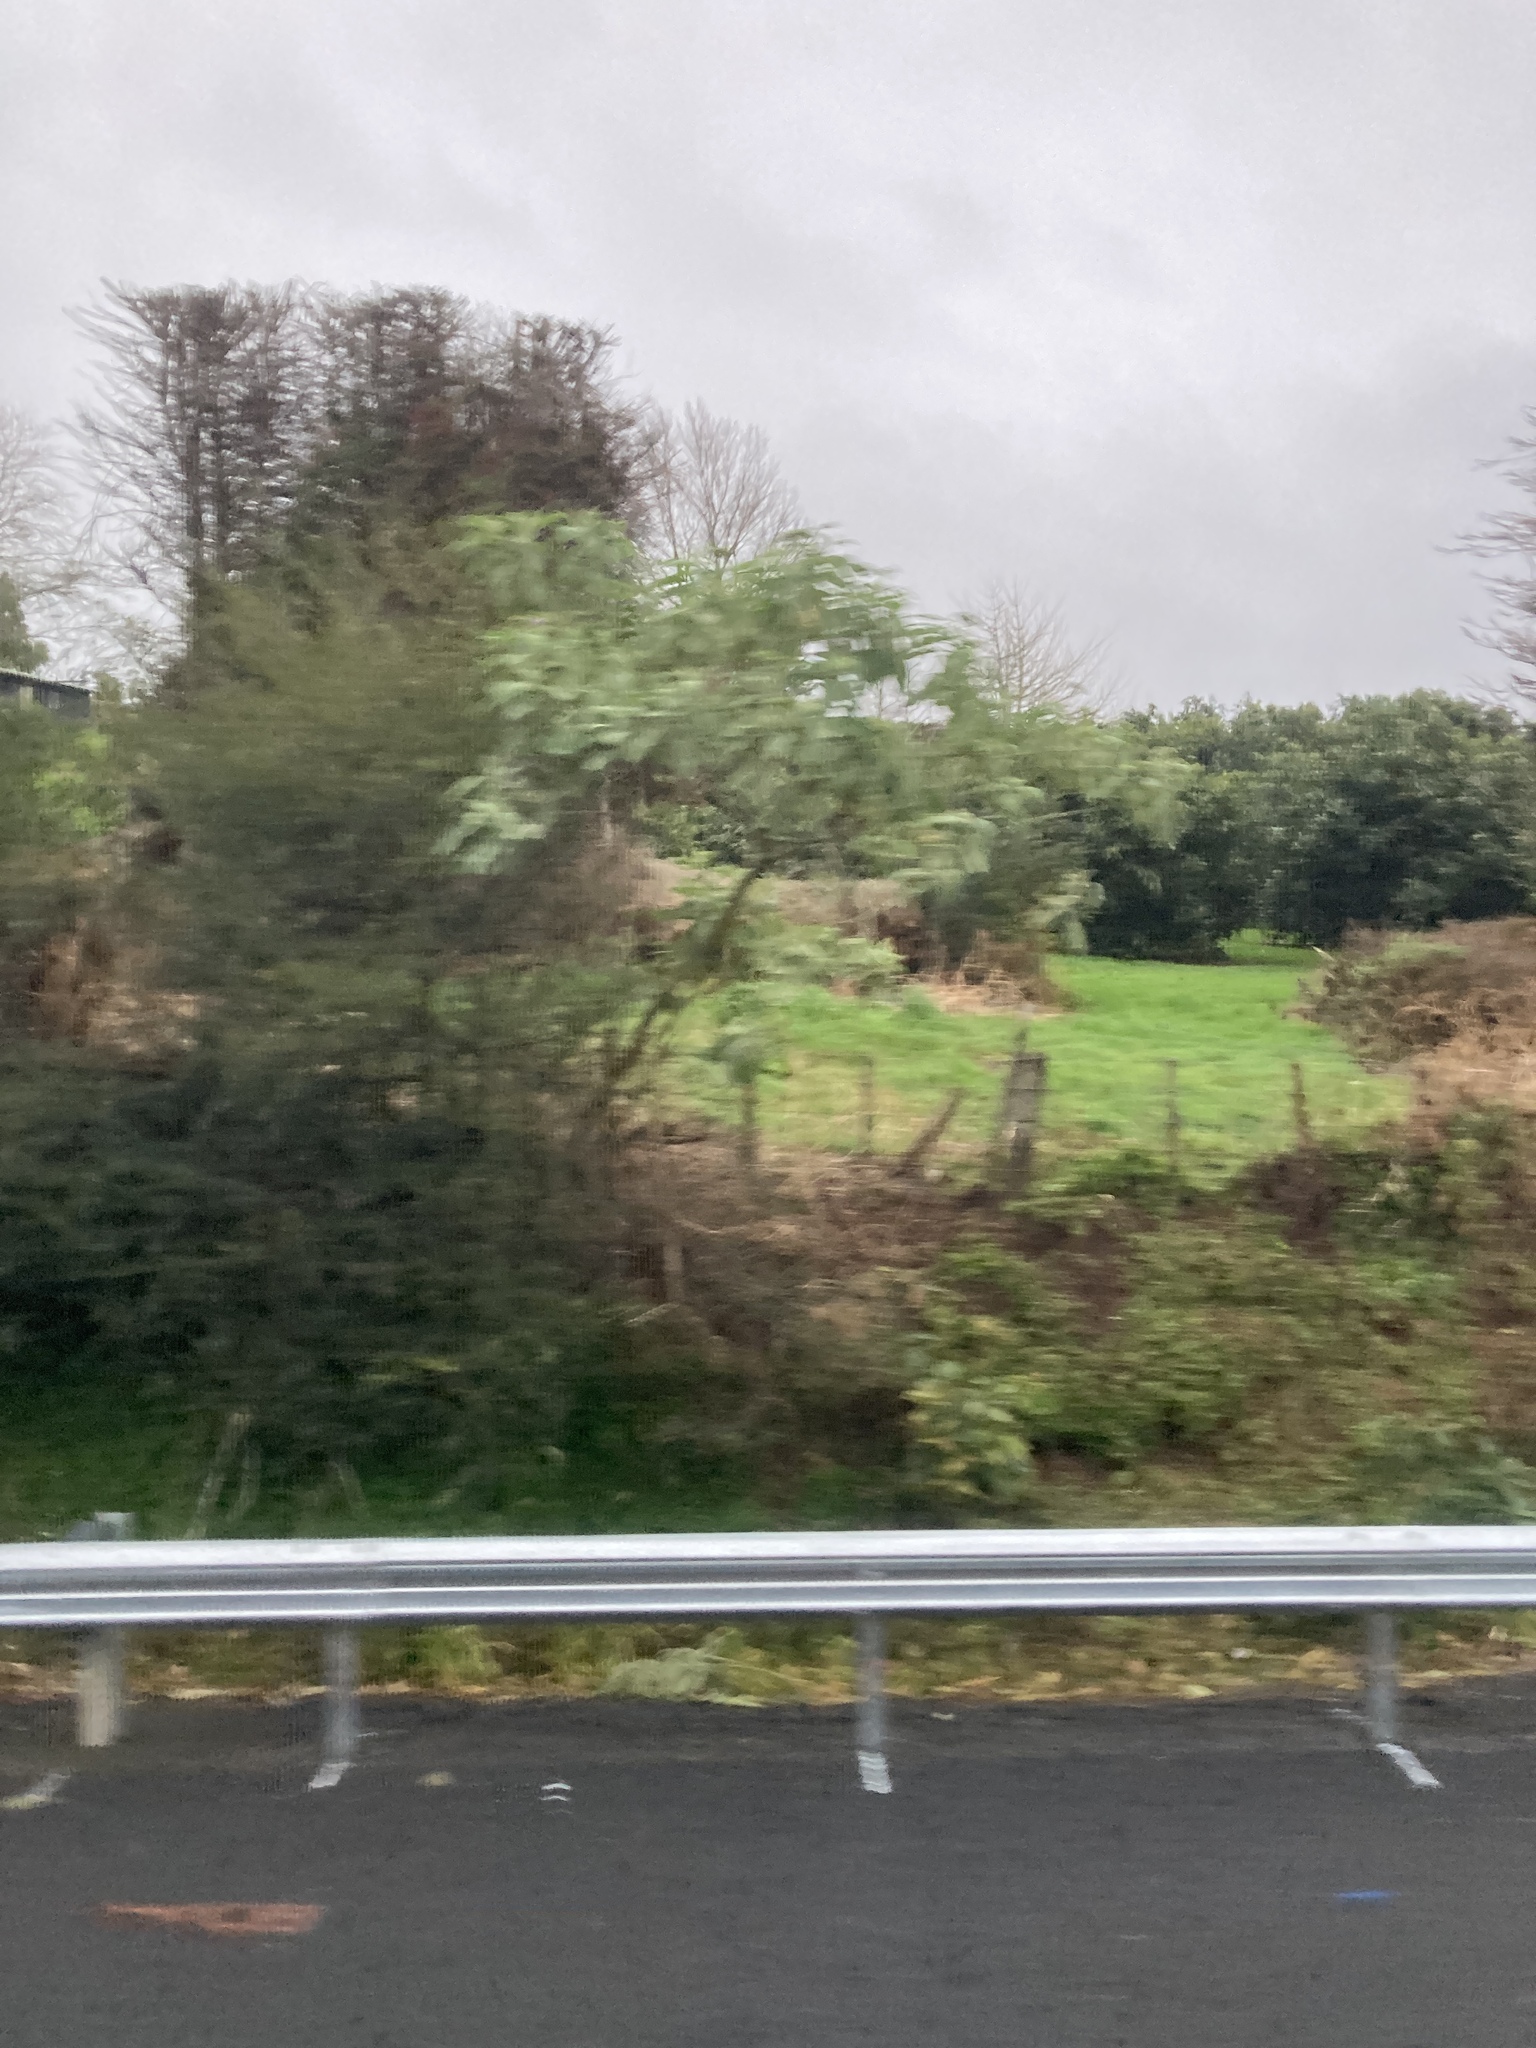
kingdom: Plantae
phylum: Tracheophyta
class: Magnoliopsida
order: Solanales
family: Solanaceae
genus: Solanum
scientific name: Solanum mauritianum
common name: Earleaf nightshade
